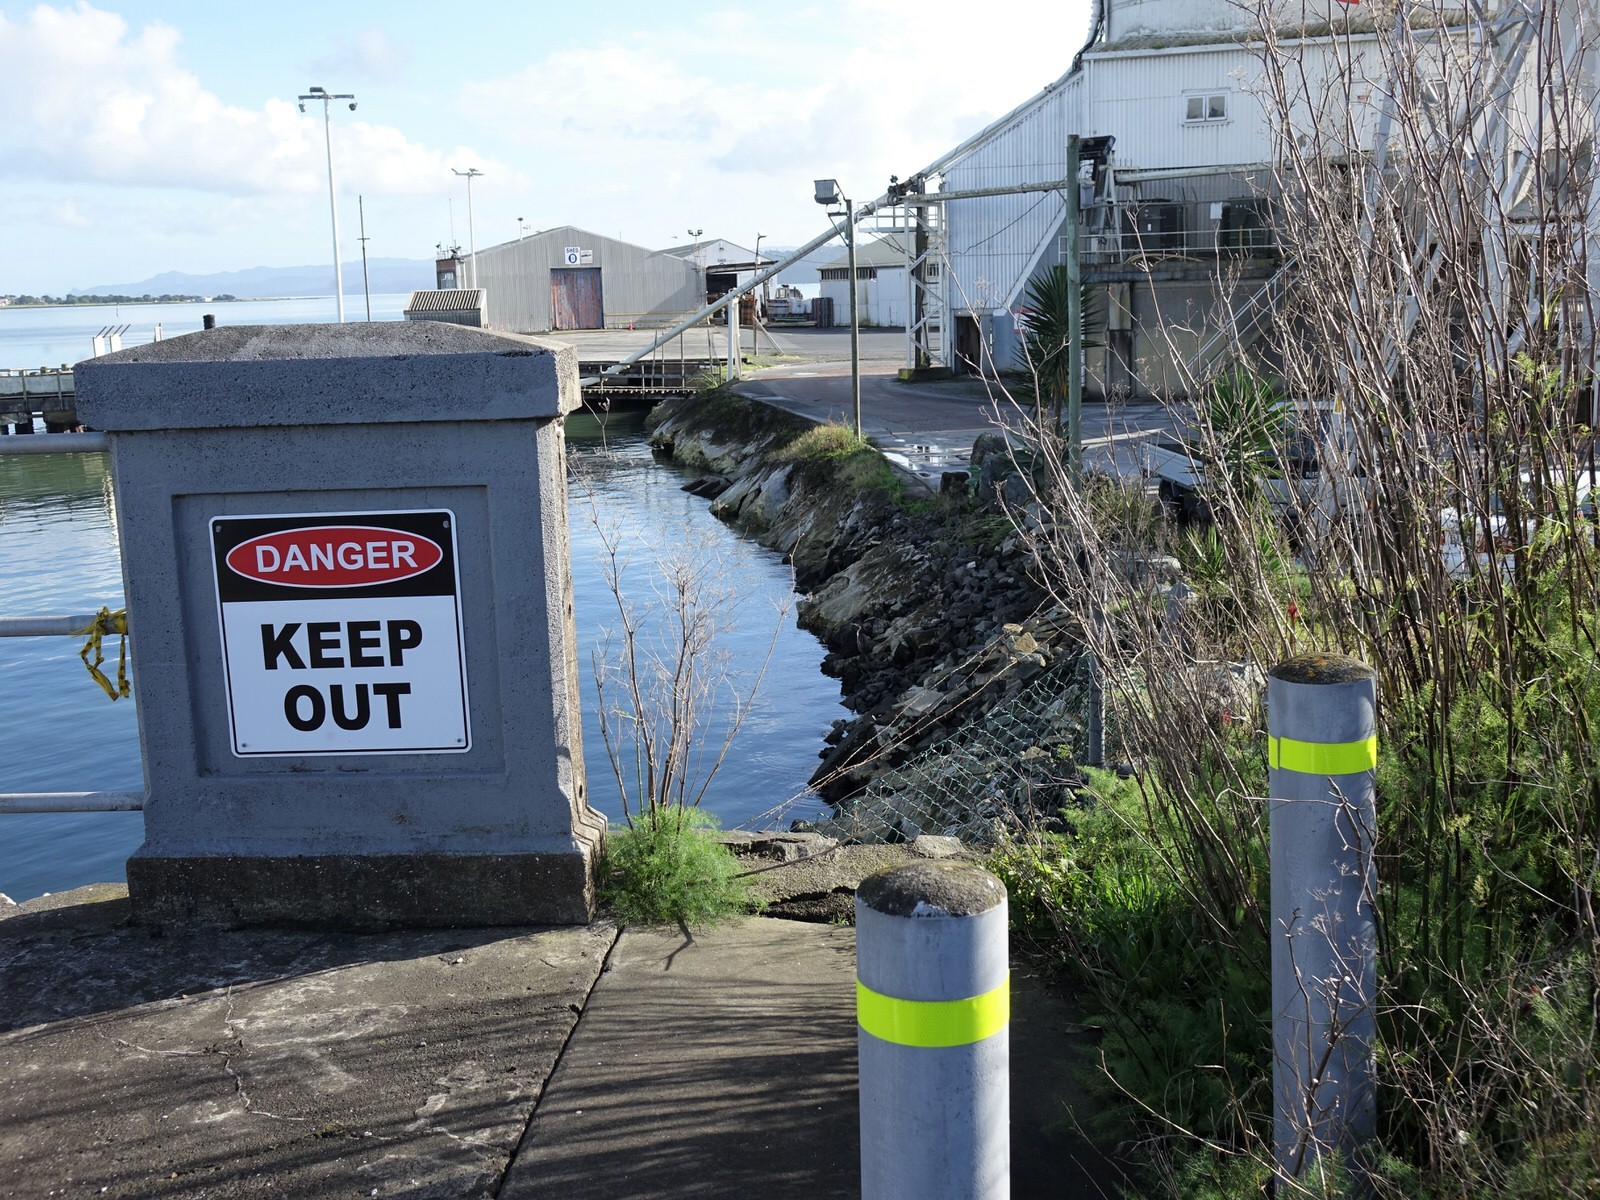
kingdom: Animalia
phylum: Chordata
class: Aves
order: Suliformes
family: Phalacrocoracidae
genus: Phalacrocorax
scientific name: Phalacrocorax varius
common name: Pied cormorant
